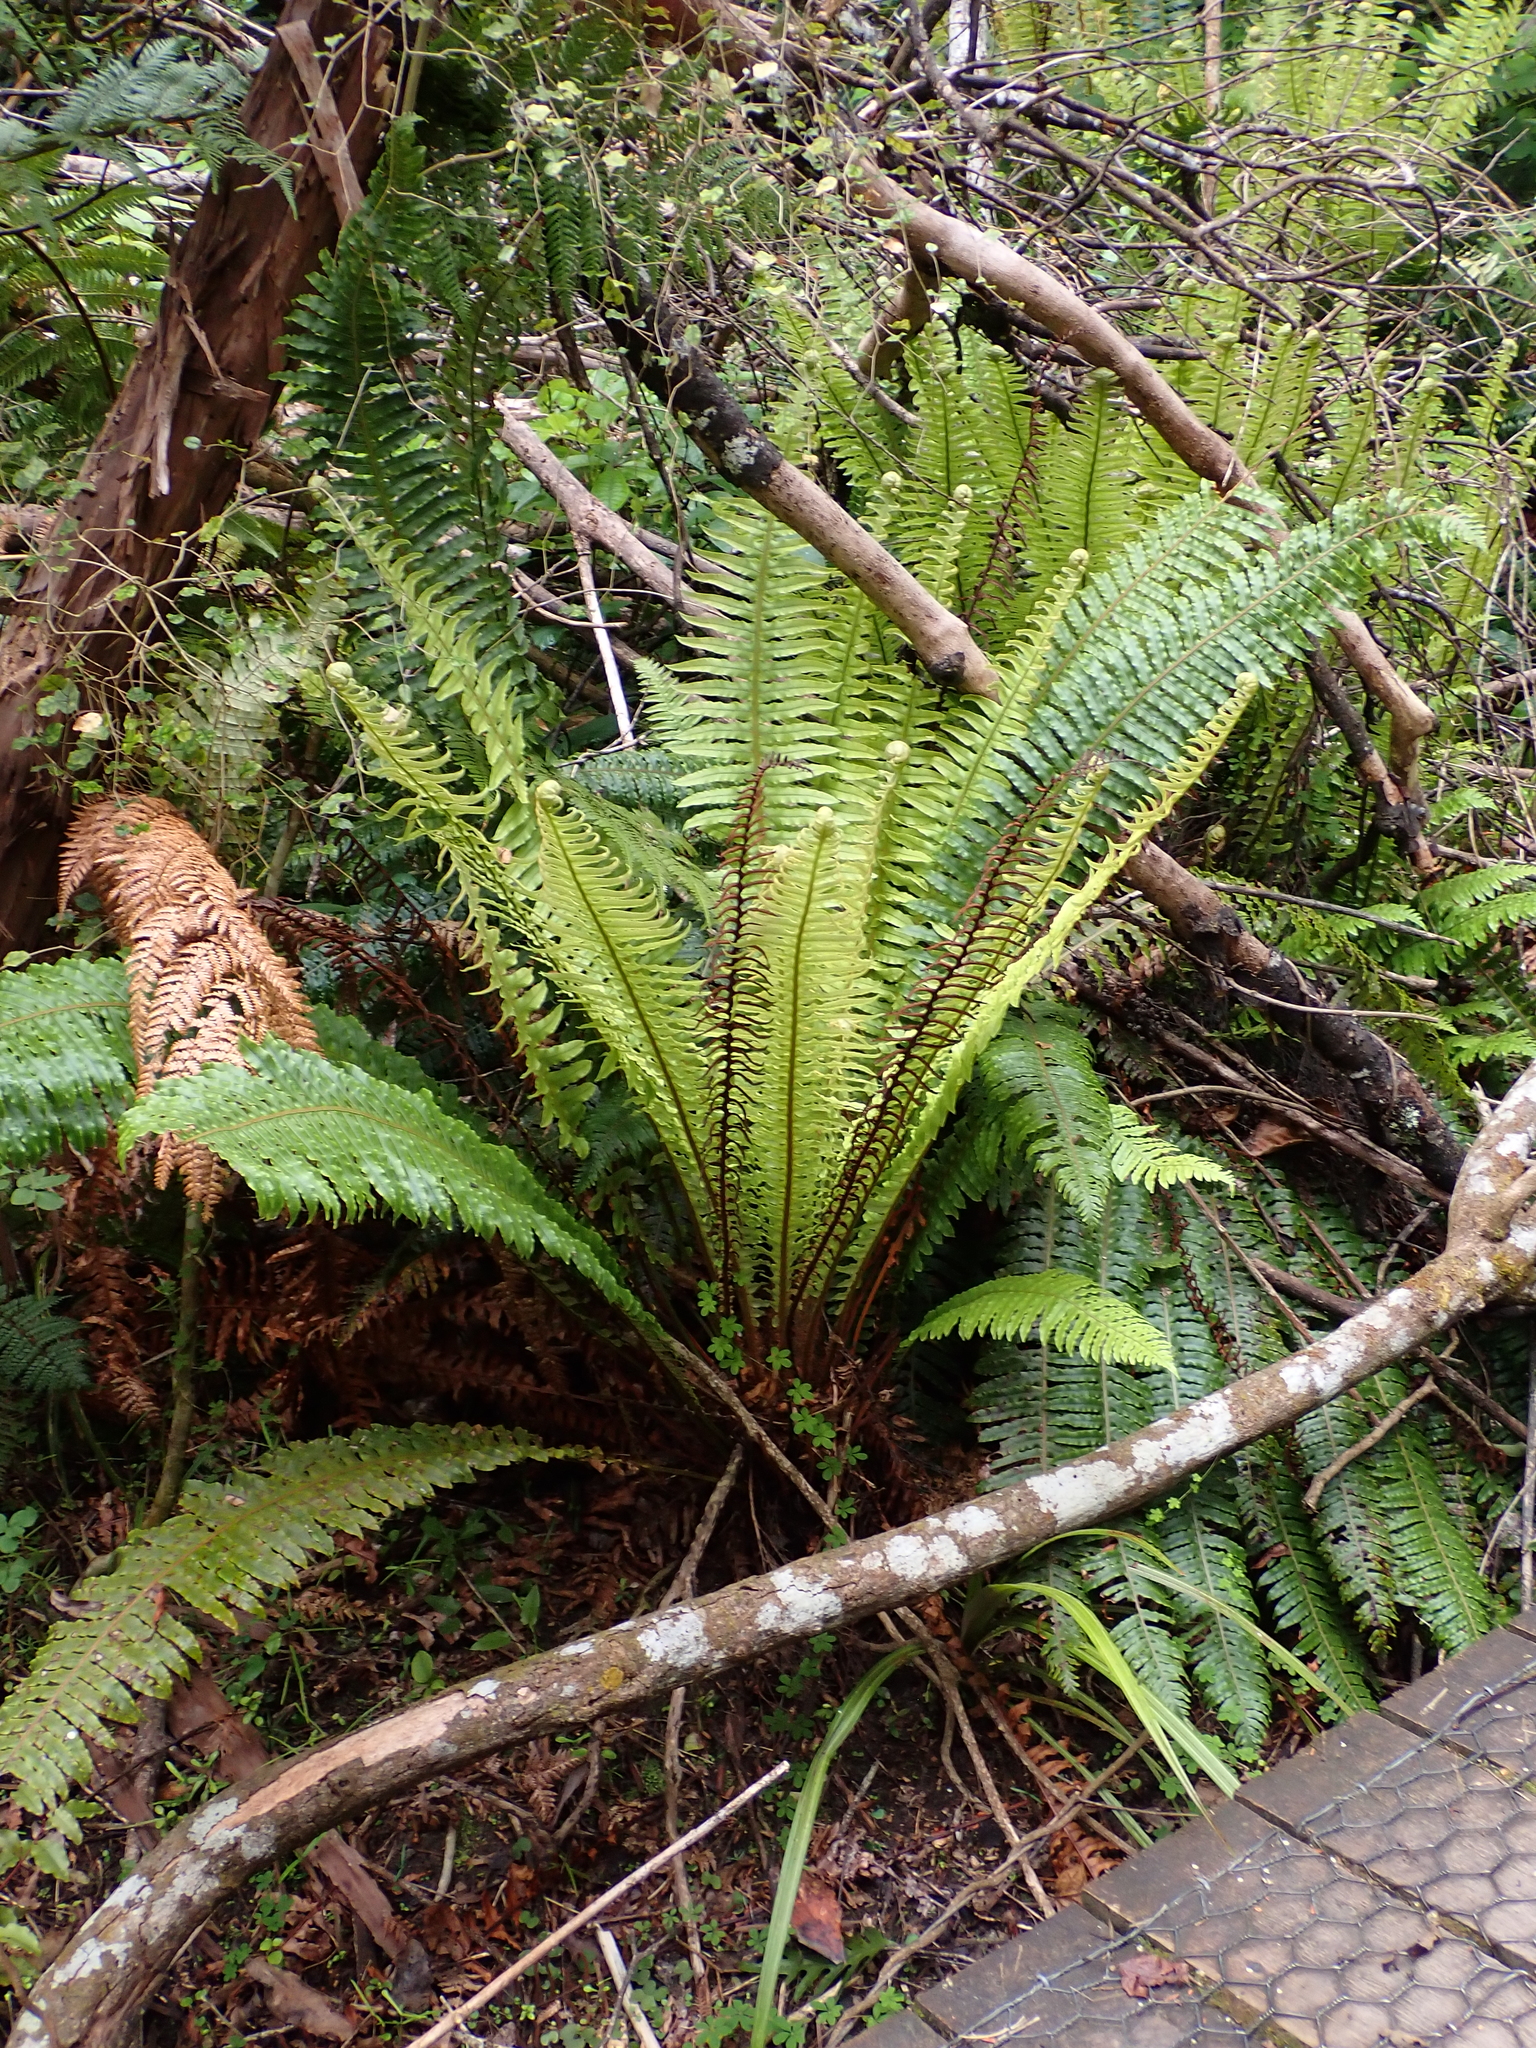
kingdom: Plantae
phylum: Tracheophyta
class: Polypodiopsida
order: Polypodiales
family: Blechnaceae
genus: Lomaria
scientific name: Lomaria discolor
